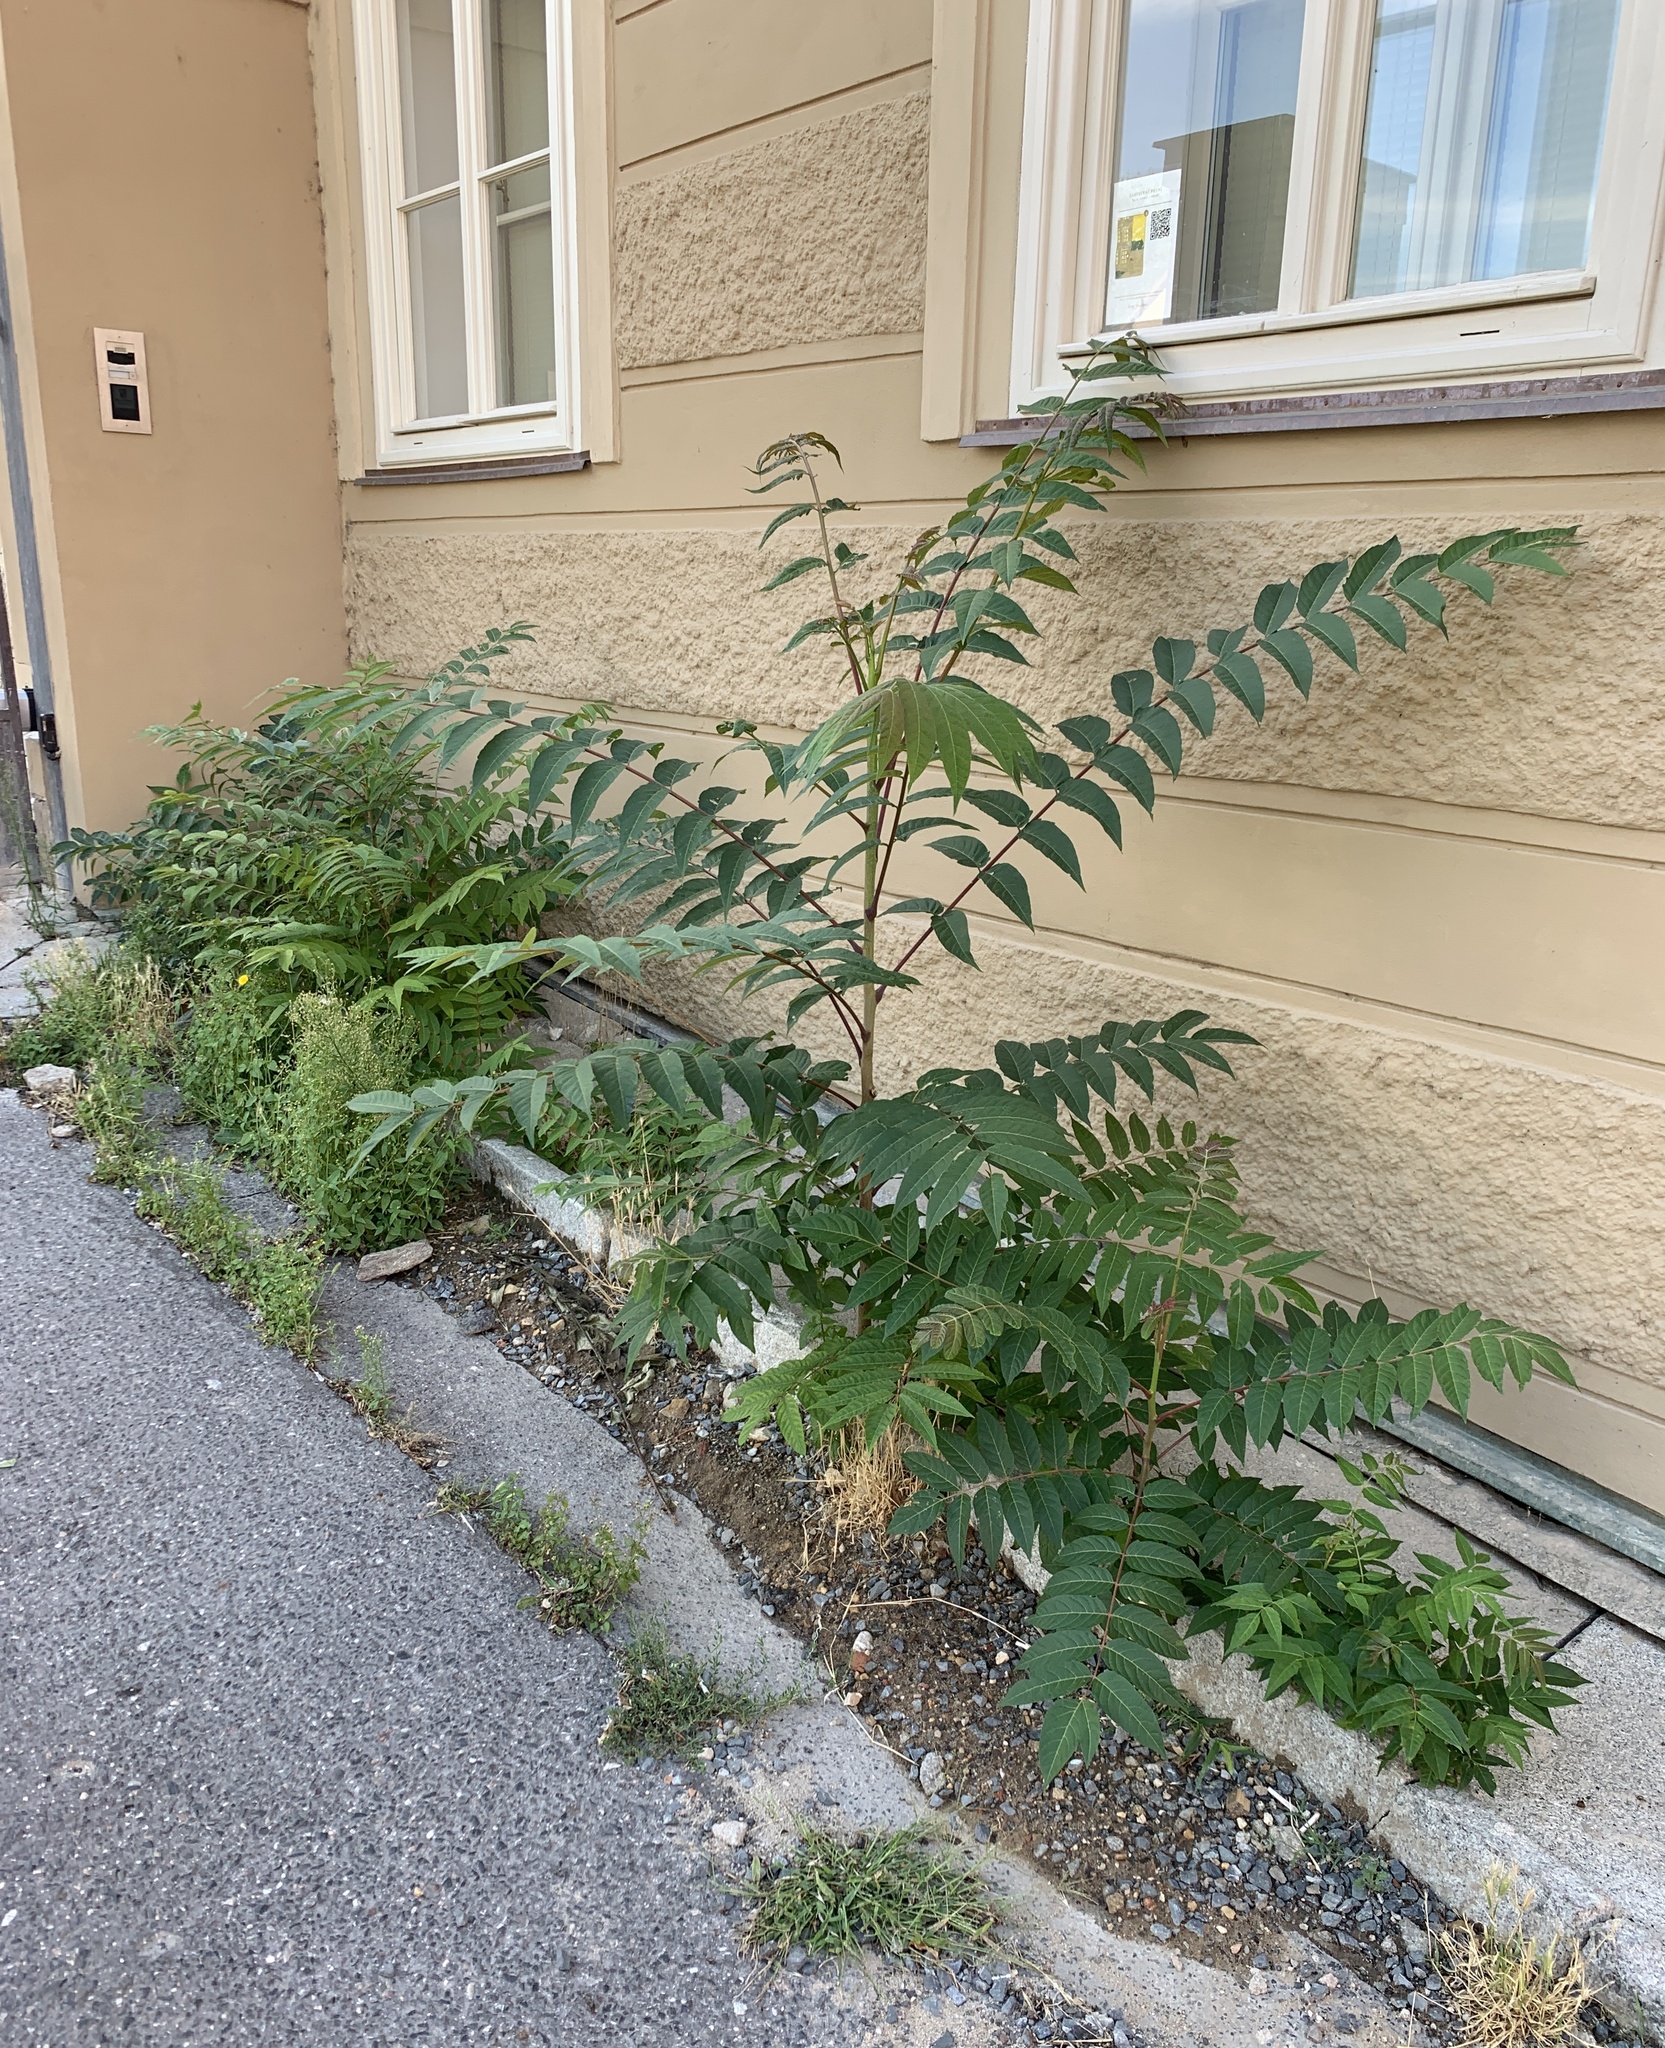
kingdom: Plantae
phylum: Tracheophyta
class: Magnoliopsida
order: Sapindales
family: Simaroubaceae
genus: Ailanthus
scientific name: Ailanthus altissima
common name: Tree-of-heaven
